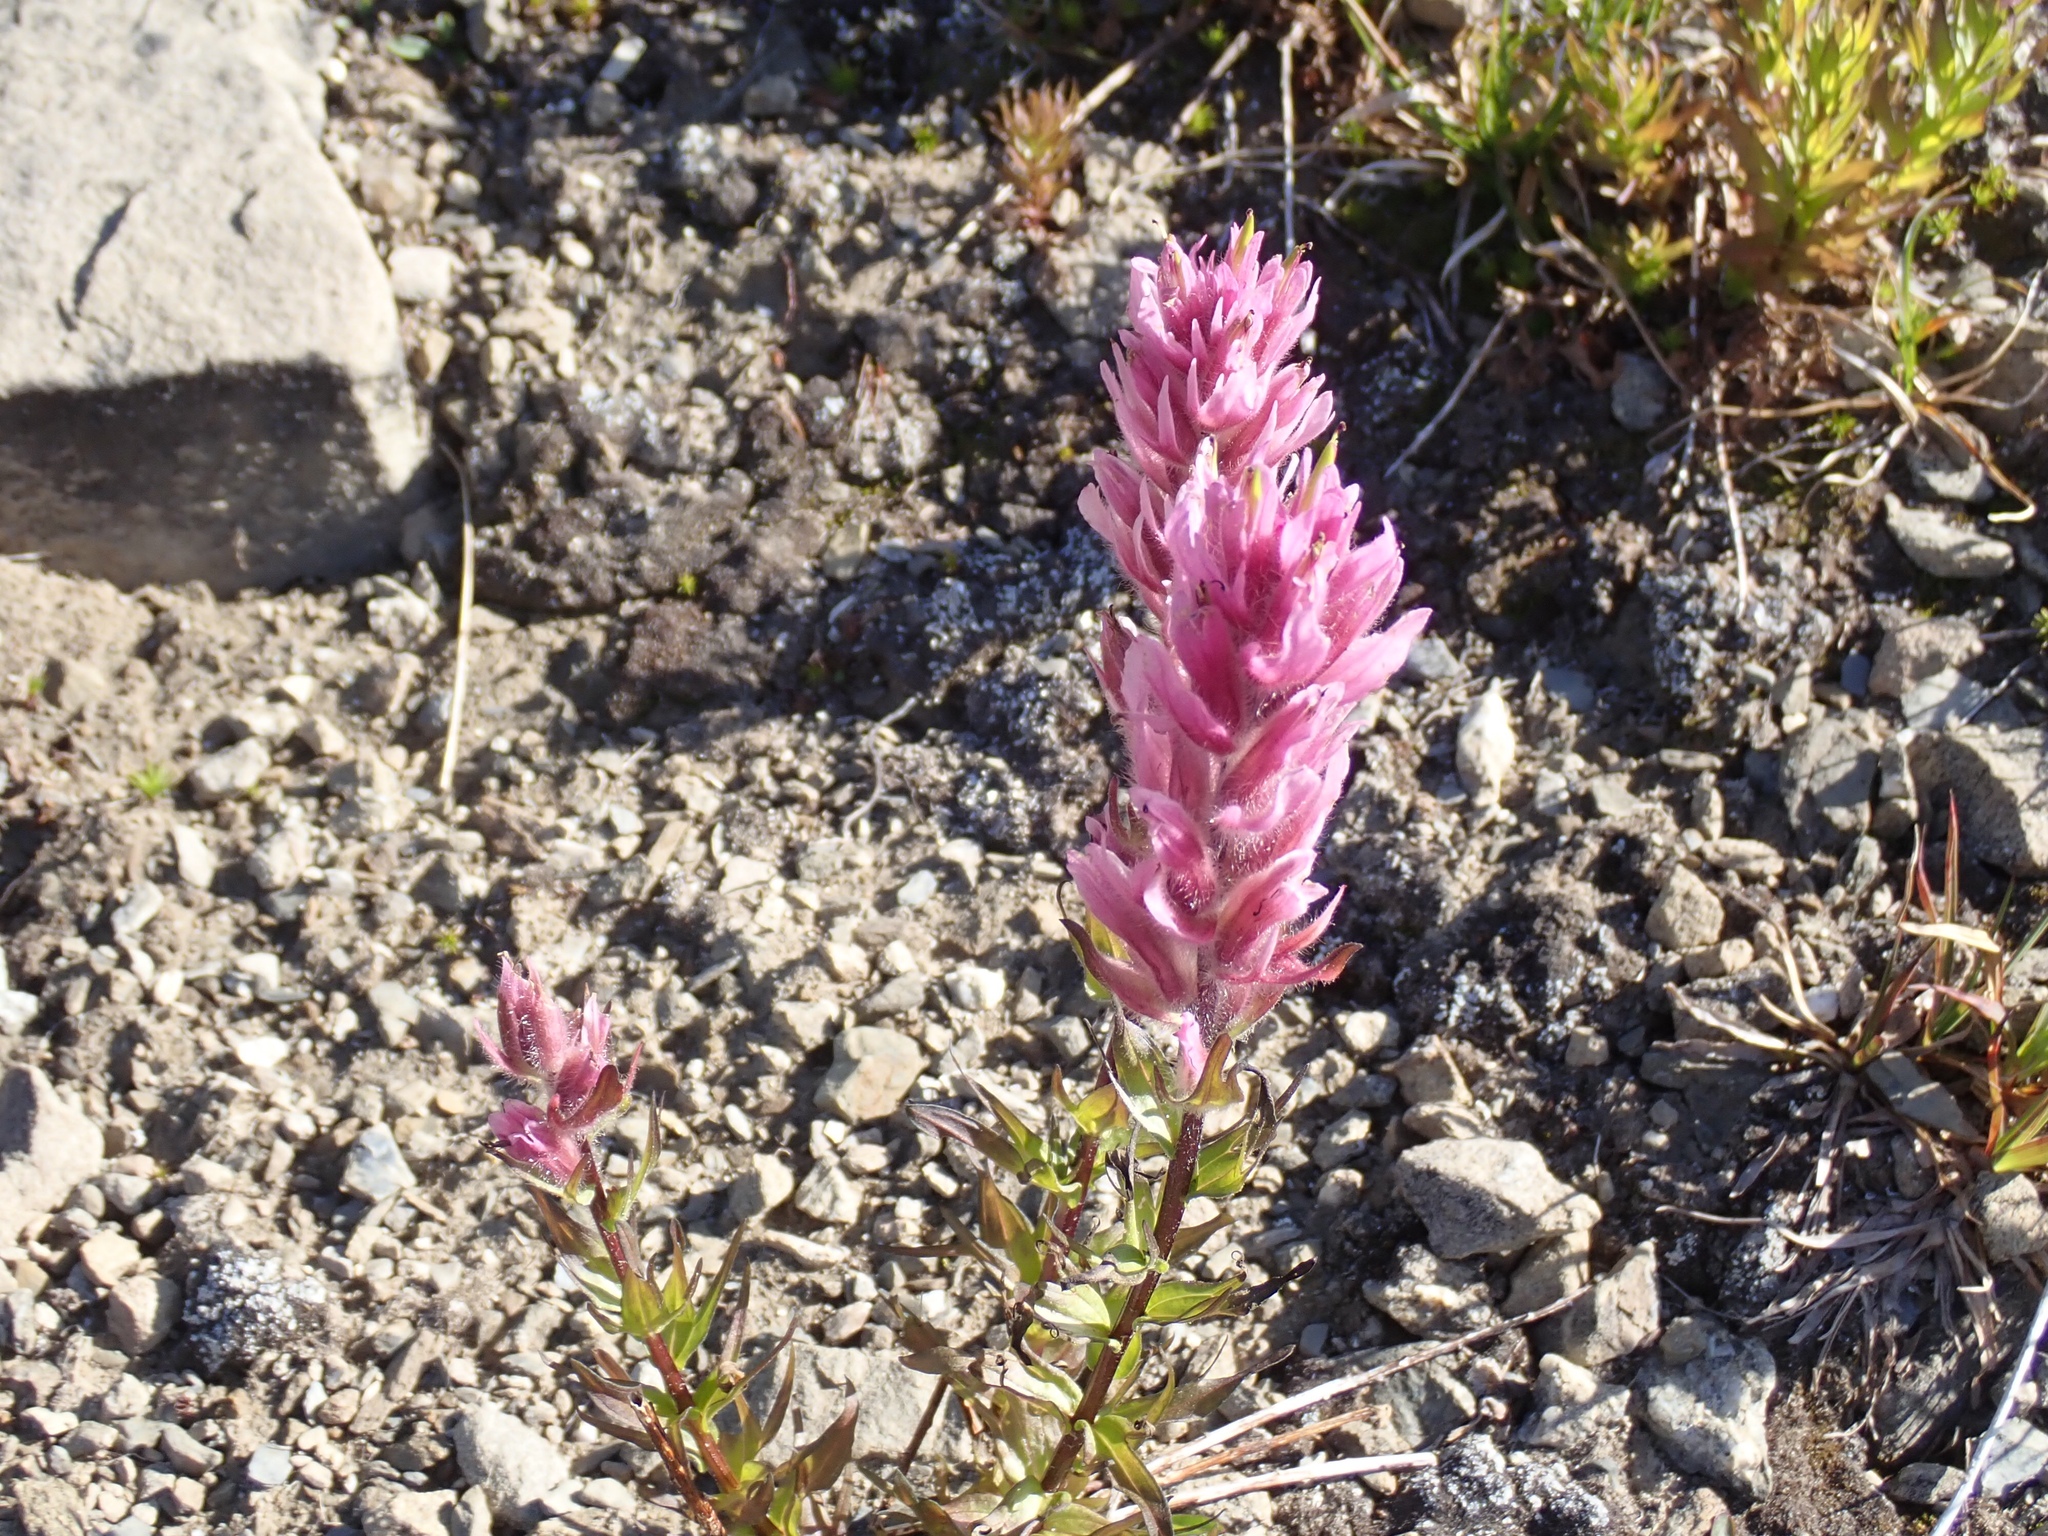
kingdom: Plantae
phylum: Tracheophyta
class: Magnoliopsida
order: Lamiales
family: Orobanchaceae
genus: Castilleja
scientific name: Castilleja parviflora
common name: Mountain paintbrush
